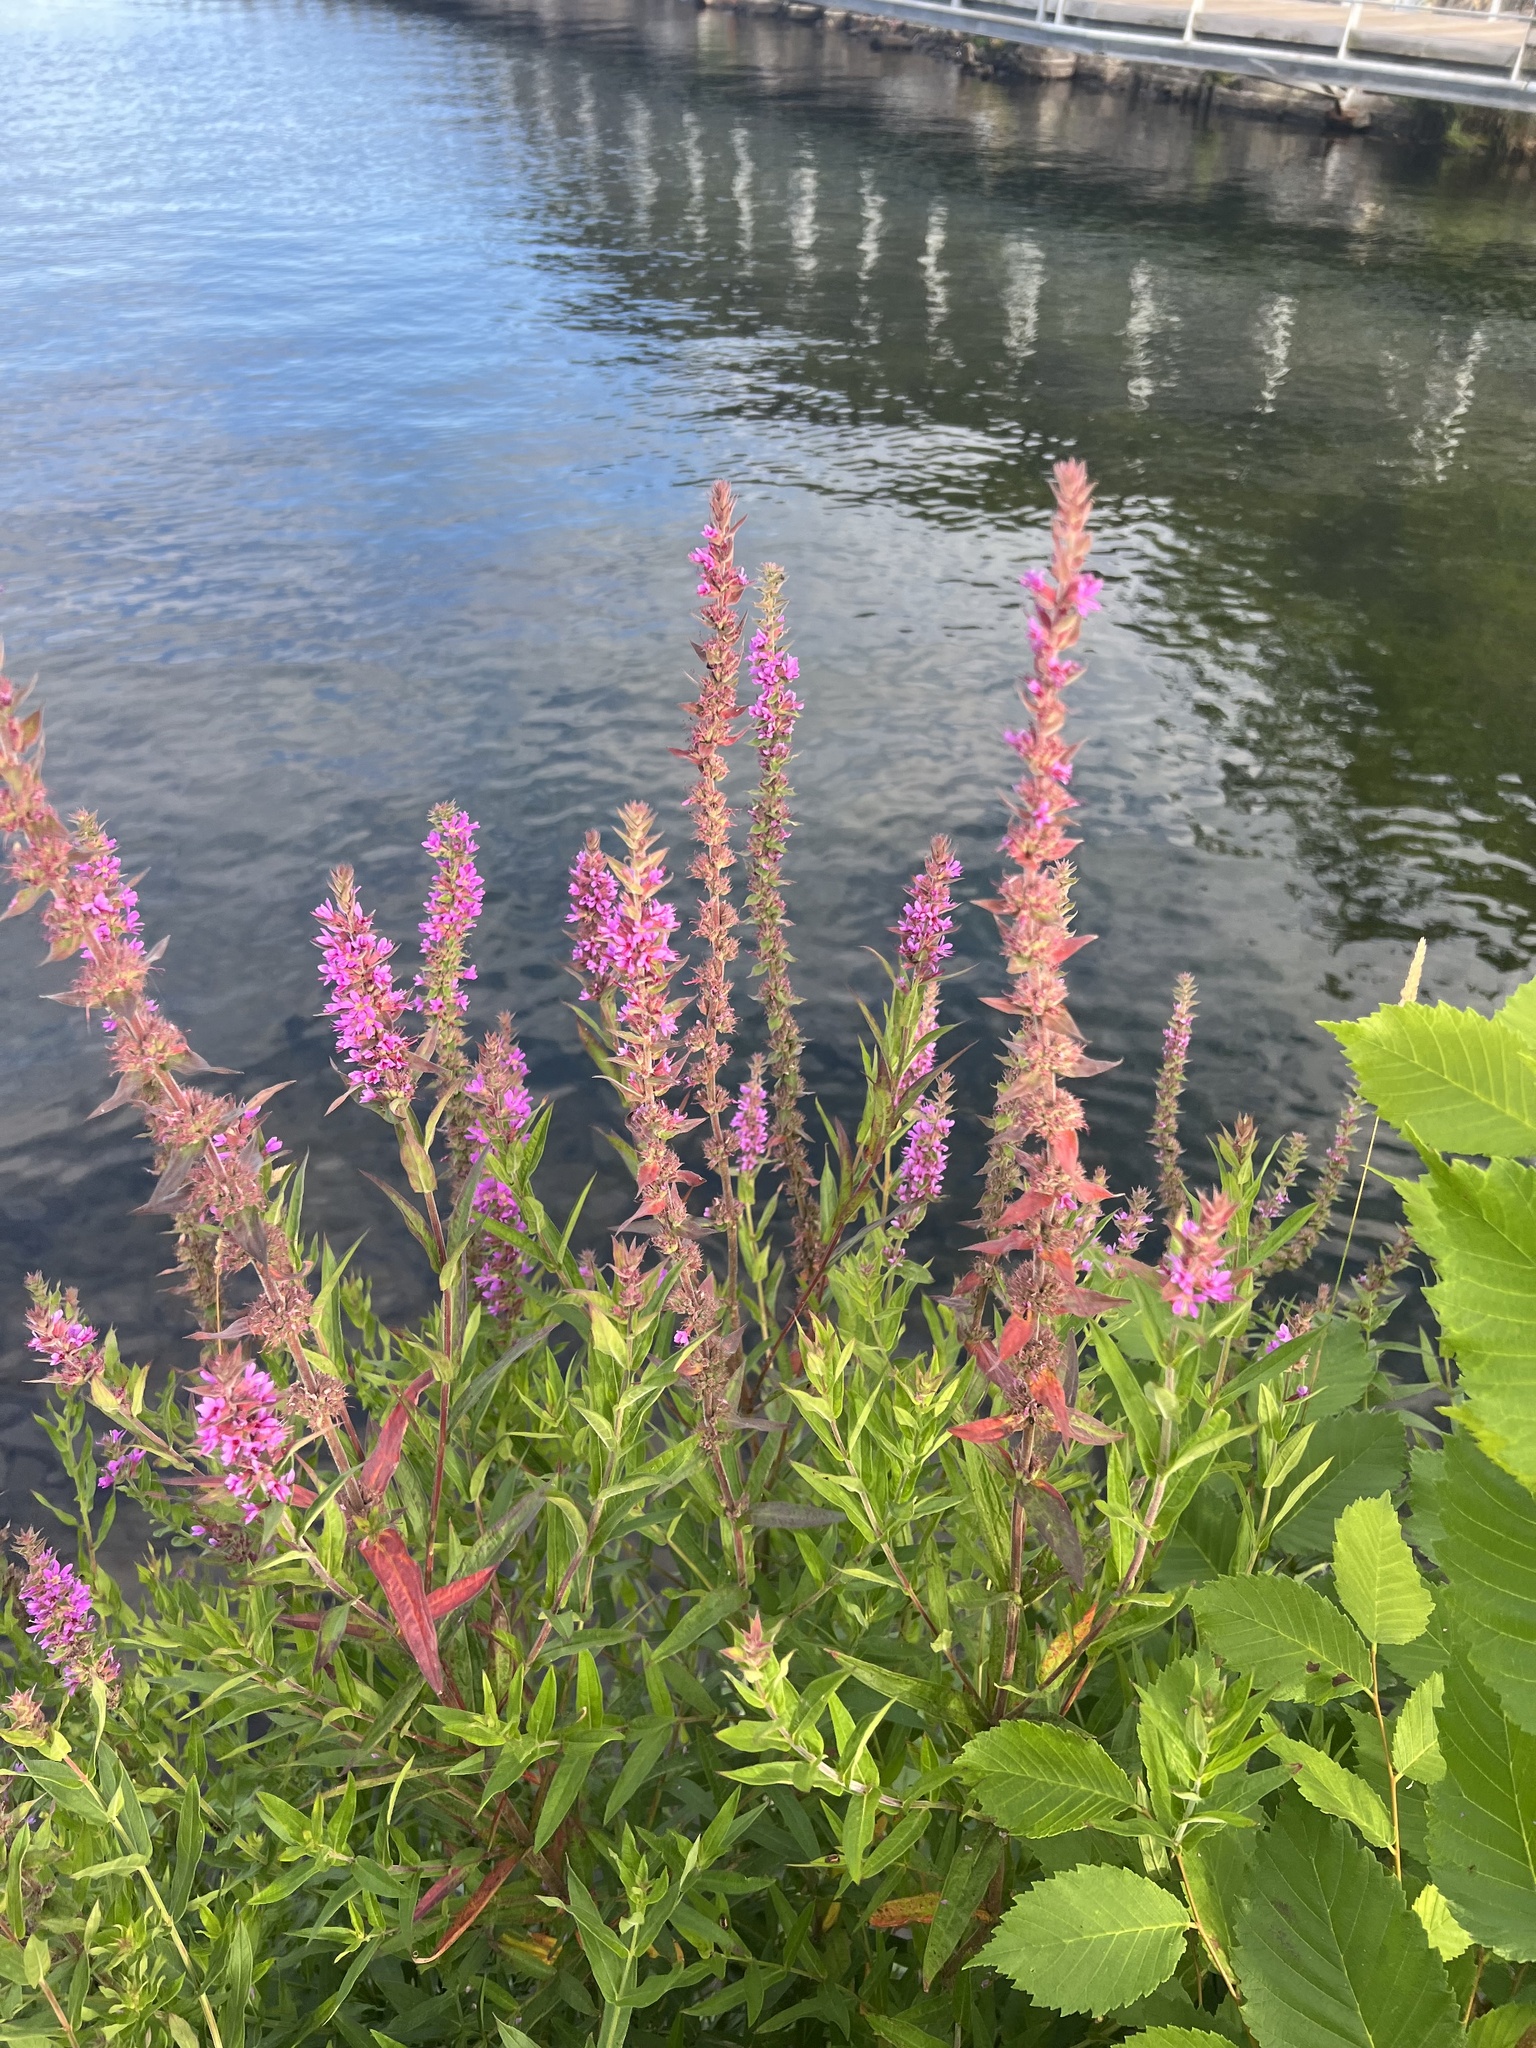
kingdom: Plantae
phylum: Tracheophyta
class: Magnoliopsida
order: Myrtales
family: Lythraceae
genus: Lythrum
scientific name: Lythrum salicaria
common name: Purple loosestrife
